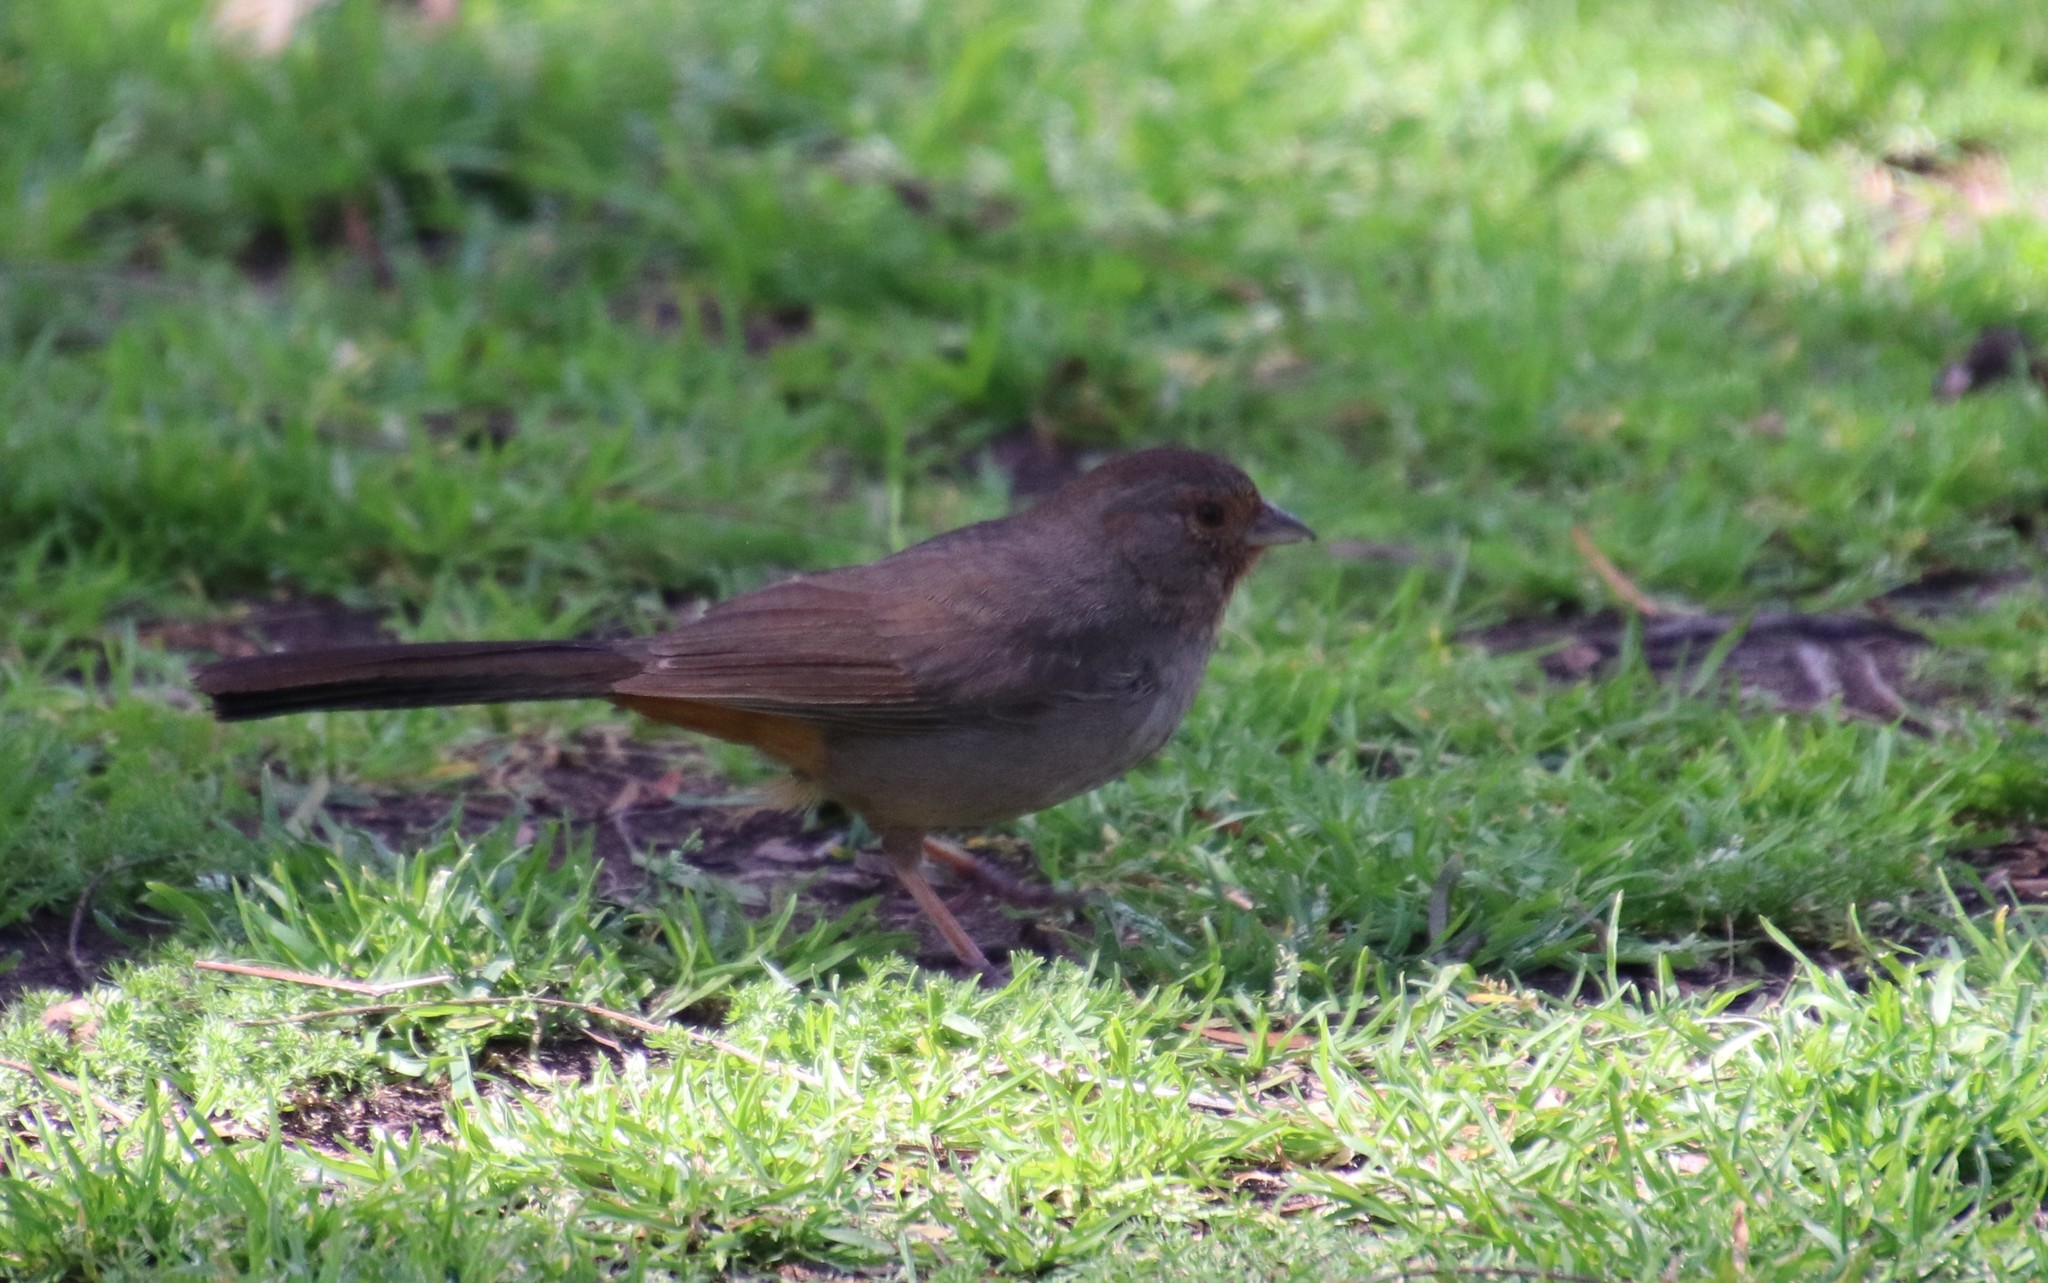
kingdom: Animalia
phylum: Chordata
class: Aves
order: Passeriformes
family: Passerellidae
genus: Melozone
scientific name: Melozone crissalis
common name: California towhee
